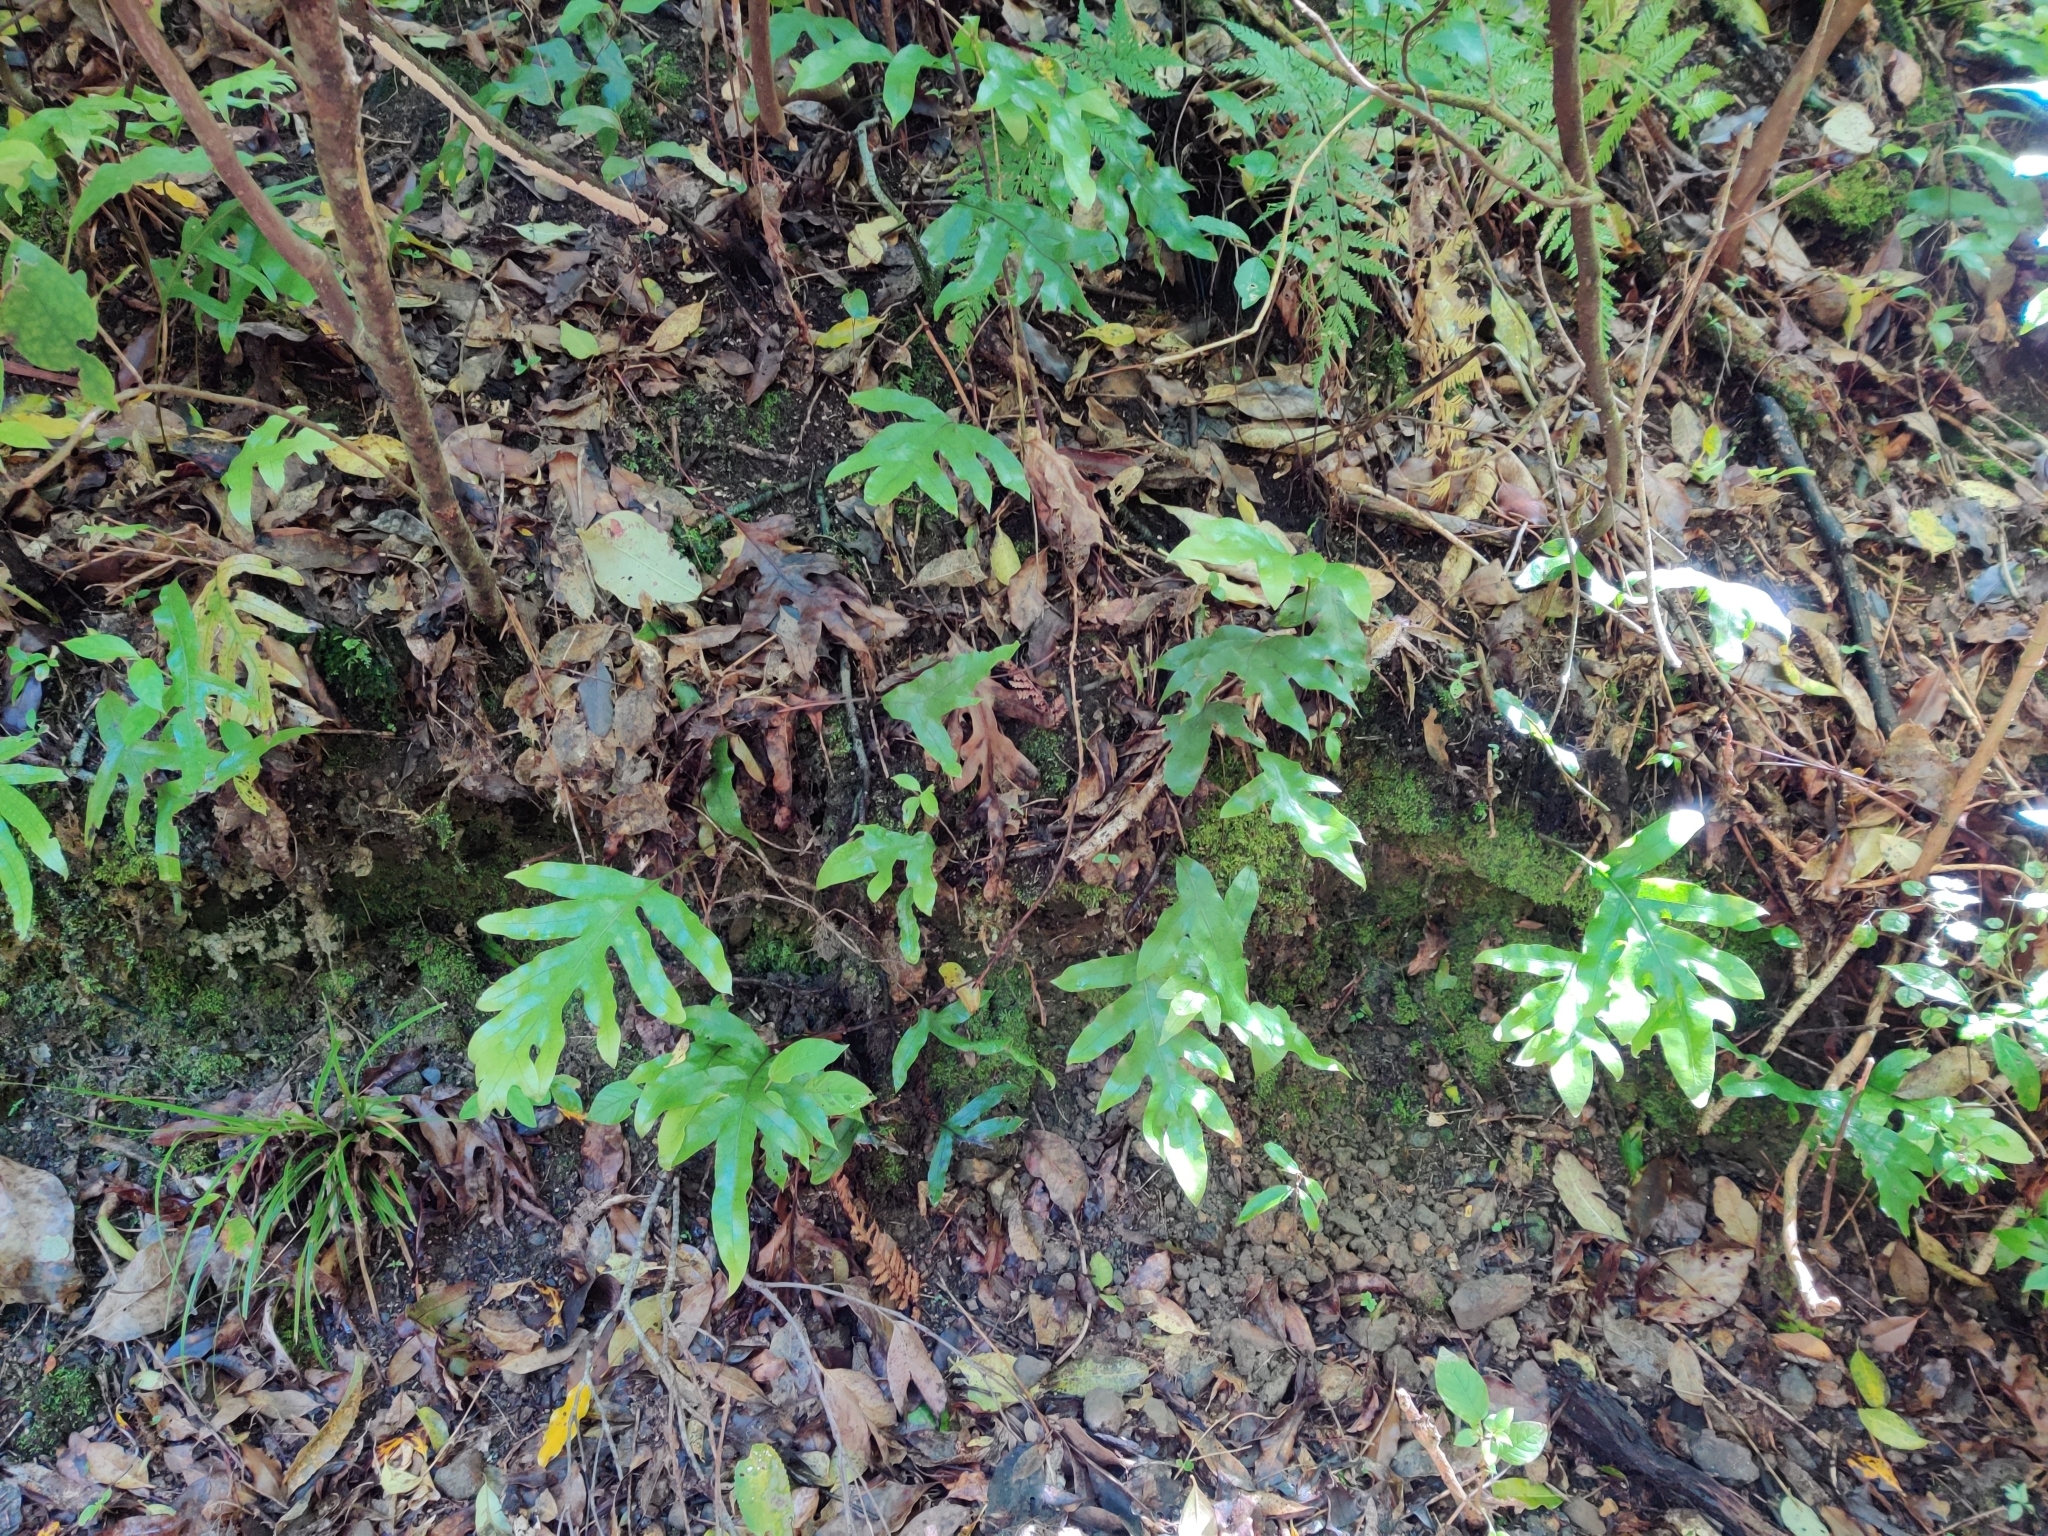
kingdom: Plantae
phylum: Tracheophyta
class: Polypodiopsida
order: Polypodiales
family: Polypodiaceae
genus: Lecanopteris
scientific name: Lecanopteris pustulata
